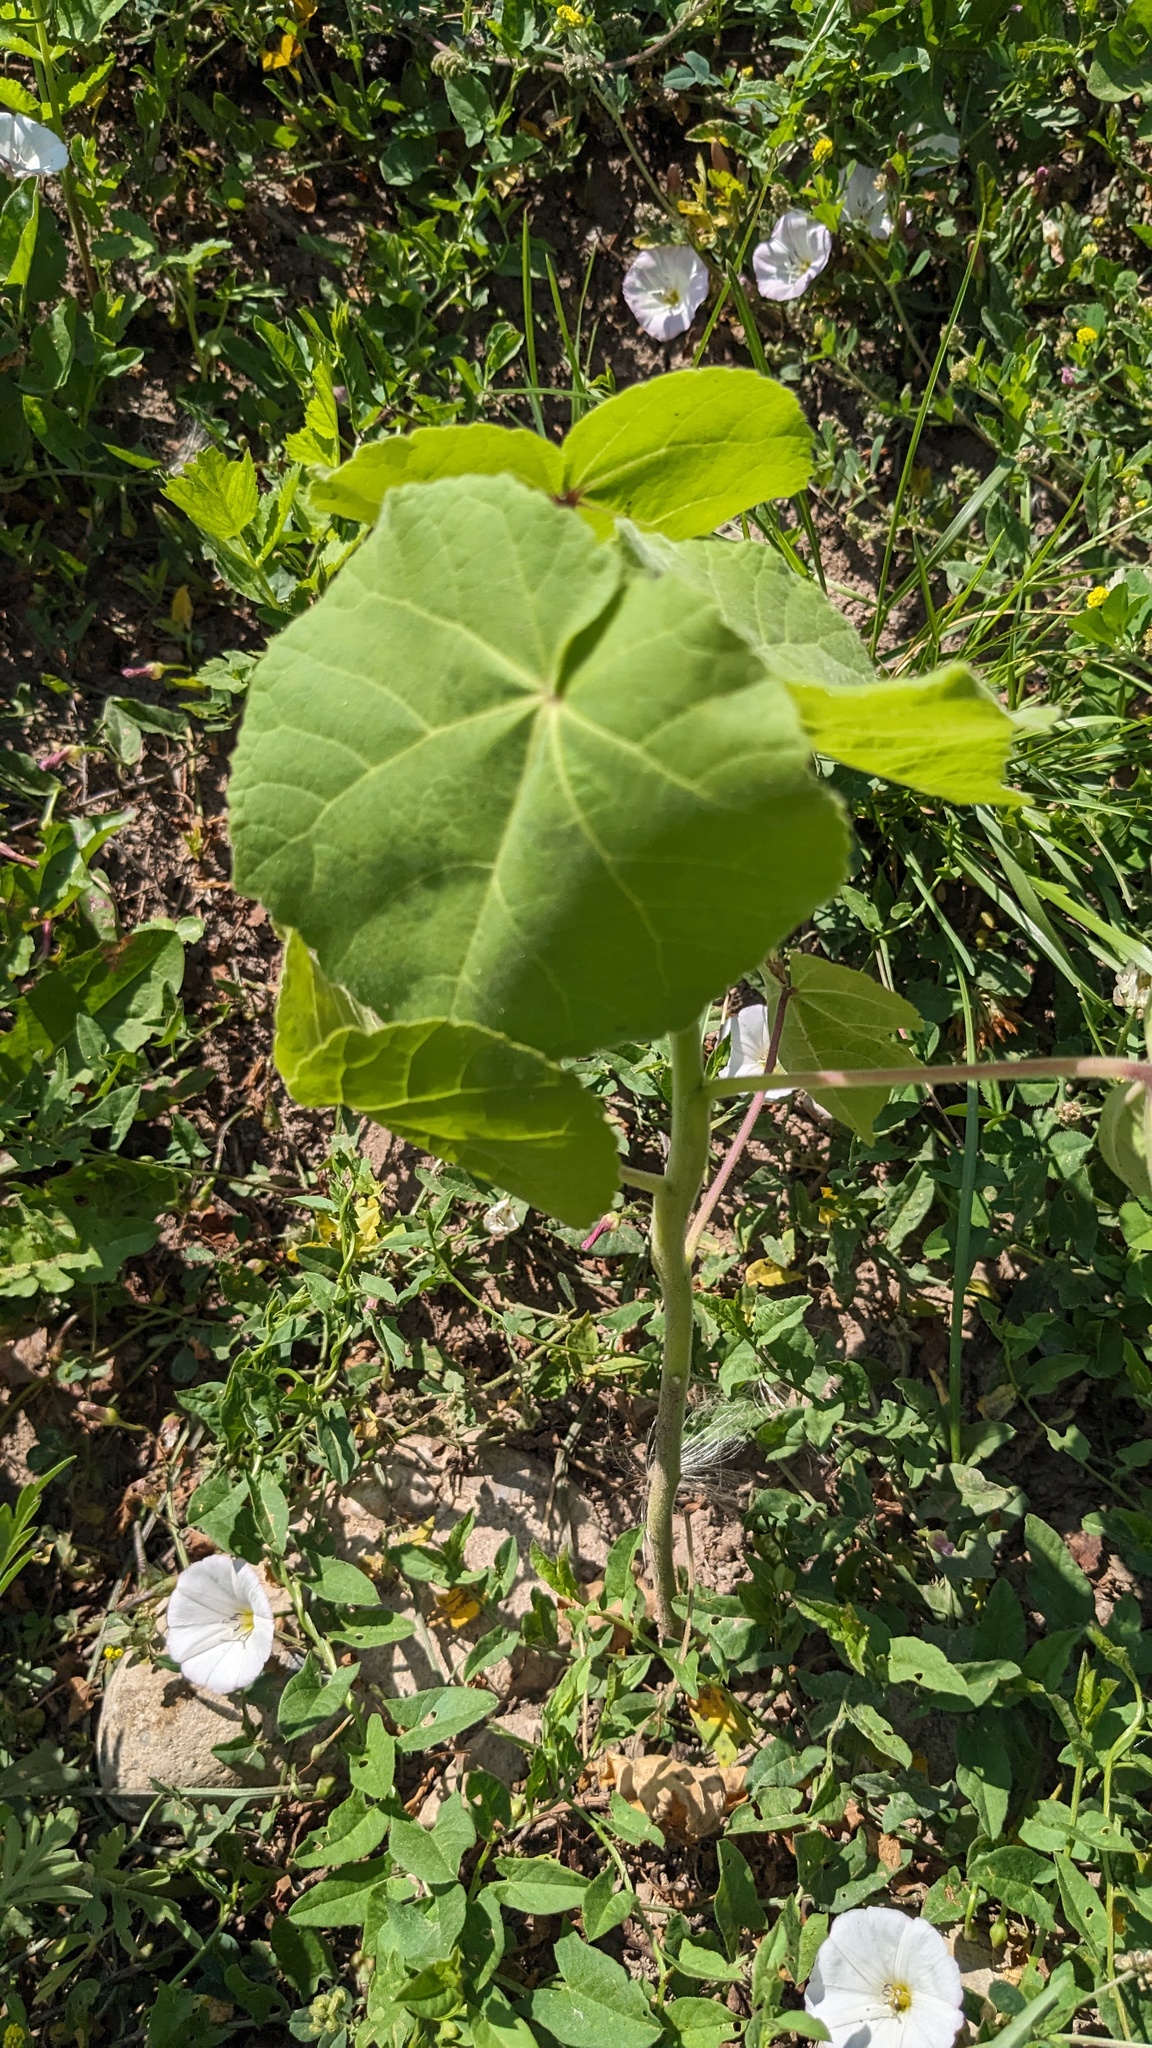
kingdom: Plantae
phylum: Tracheophyta
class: Magnoliopsida
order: Malvales
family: Malvaceae
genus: Abutilon
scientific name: Abutilon theophrasti
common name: Velvetleaf
